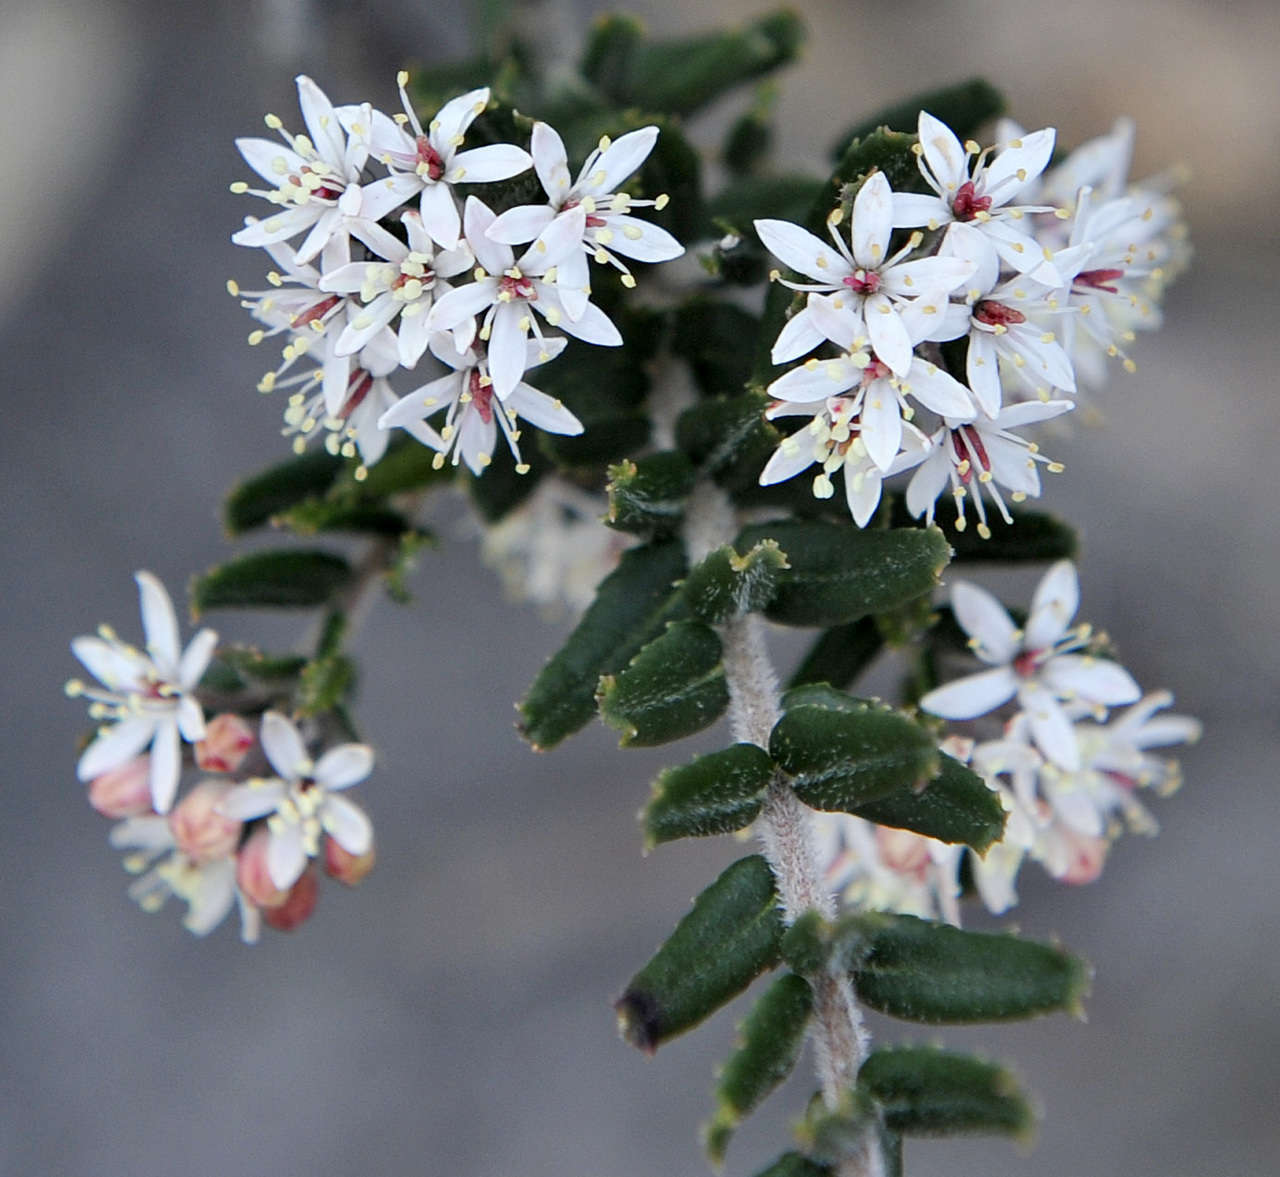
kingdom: Plantae
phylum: Tracheophyta
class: Magnoliopsida
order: Sapindales
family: Rutaceae
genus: Leionema
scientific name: Leionema bilobum
